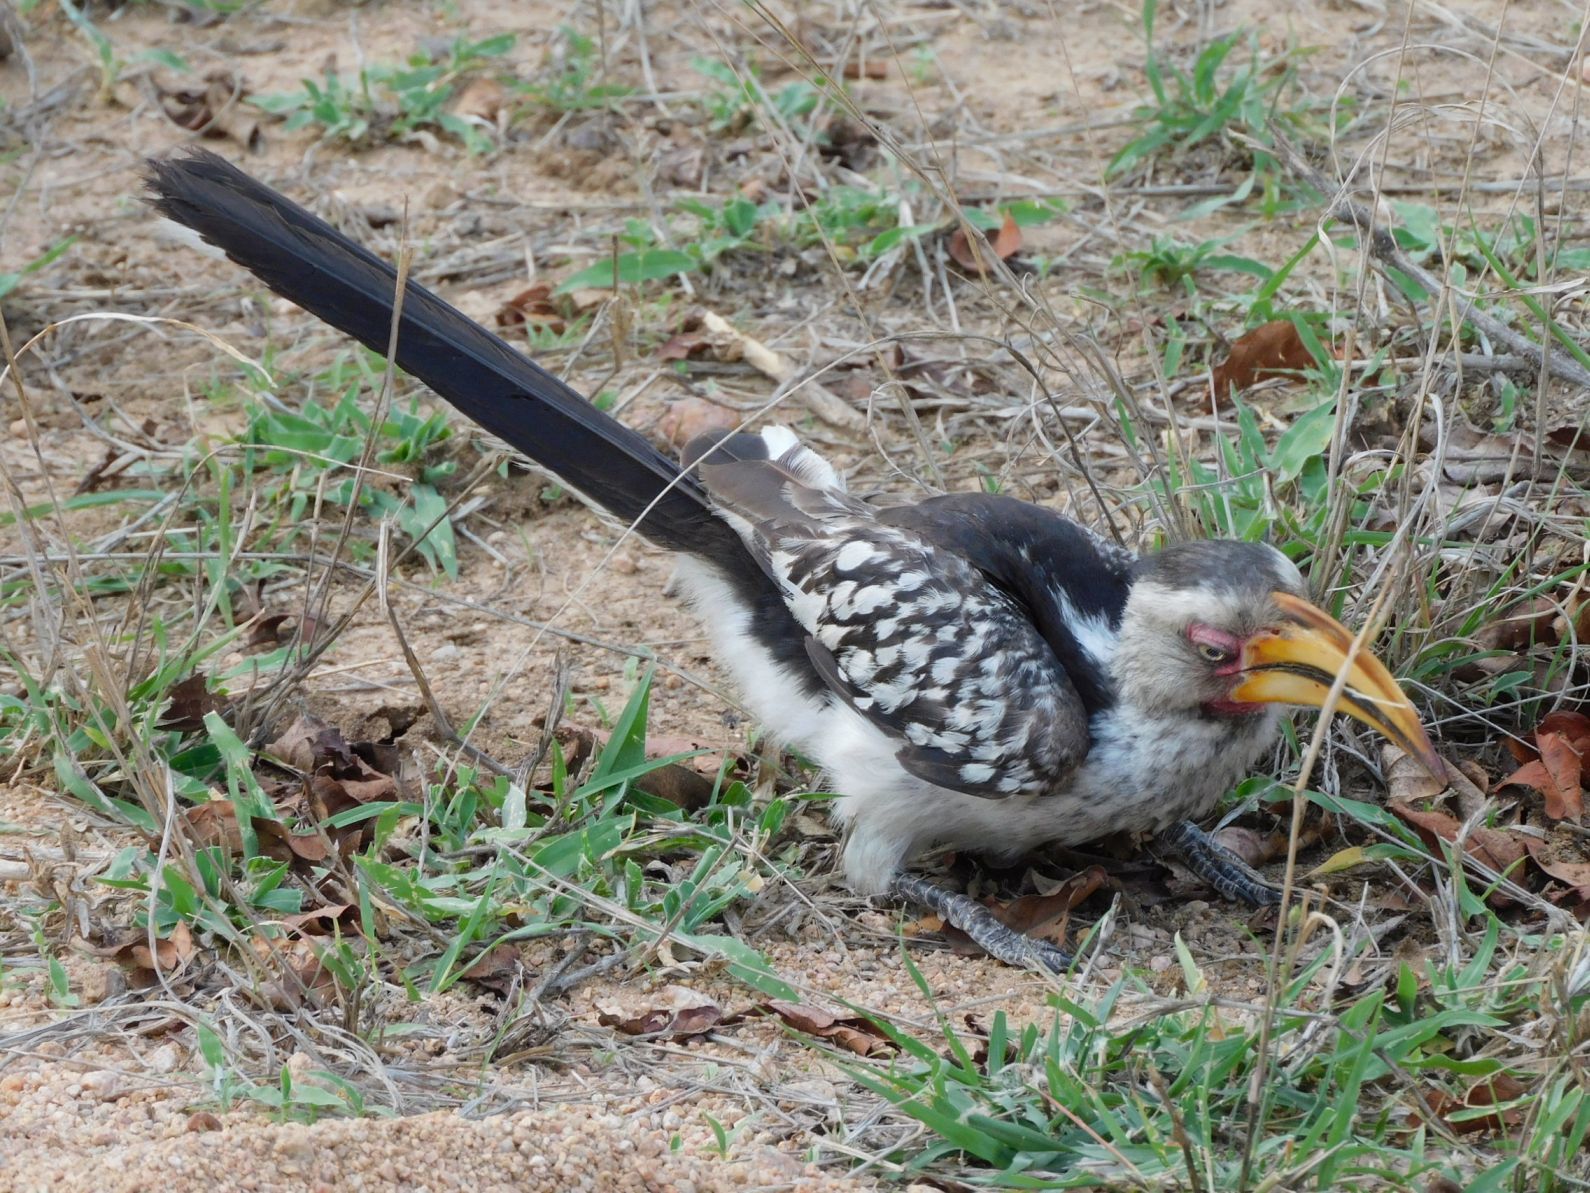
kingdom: Animalia
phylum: Chordata
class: Aves
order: Bucerotiformes
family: Bucerotidae
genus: Tockus
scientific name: Tockus leucomelas
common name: Southern yellow-billed hornbill
